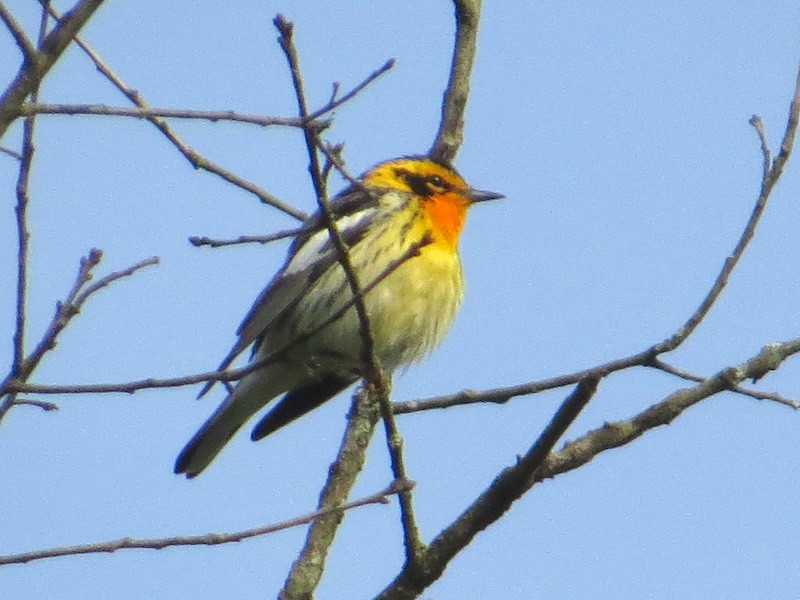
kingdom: Animalia
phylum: Chordata
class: Aves
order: Passeriformes
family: Parulidae
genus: Setophaga
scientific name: Setophaga fusca
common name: Blackburnian warbler
